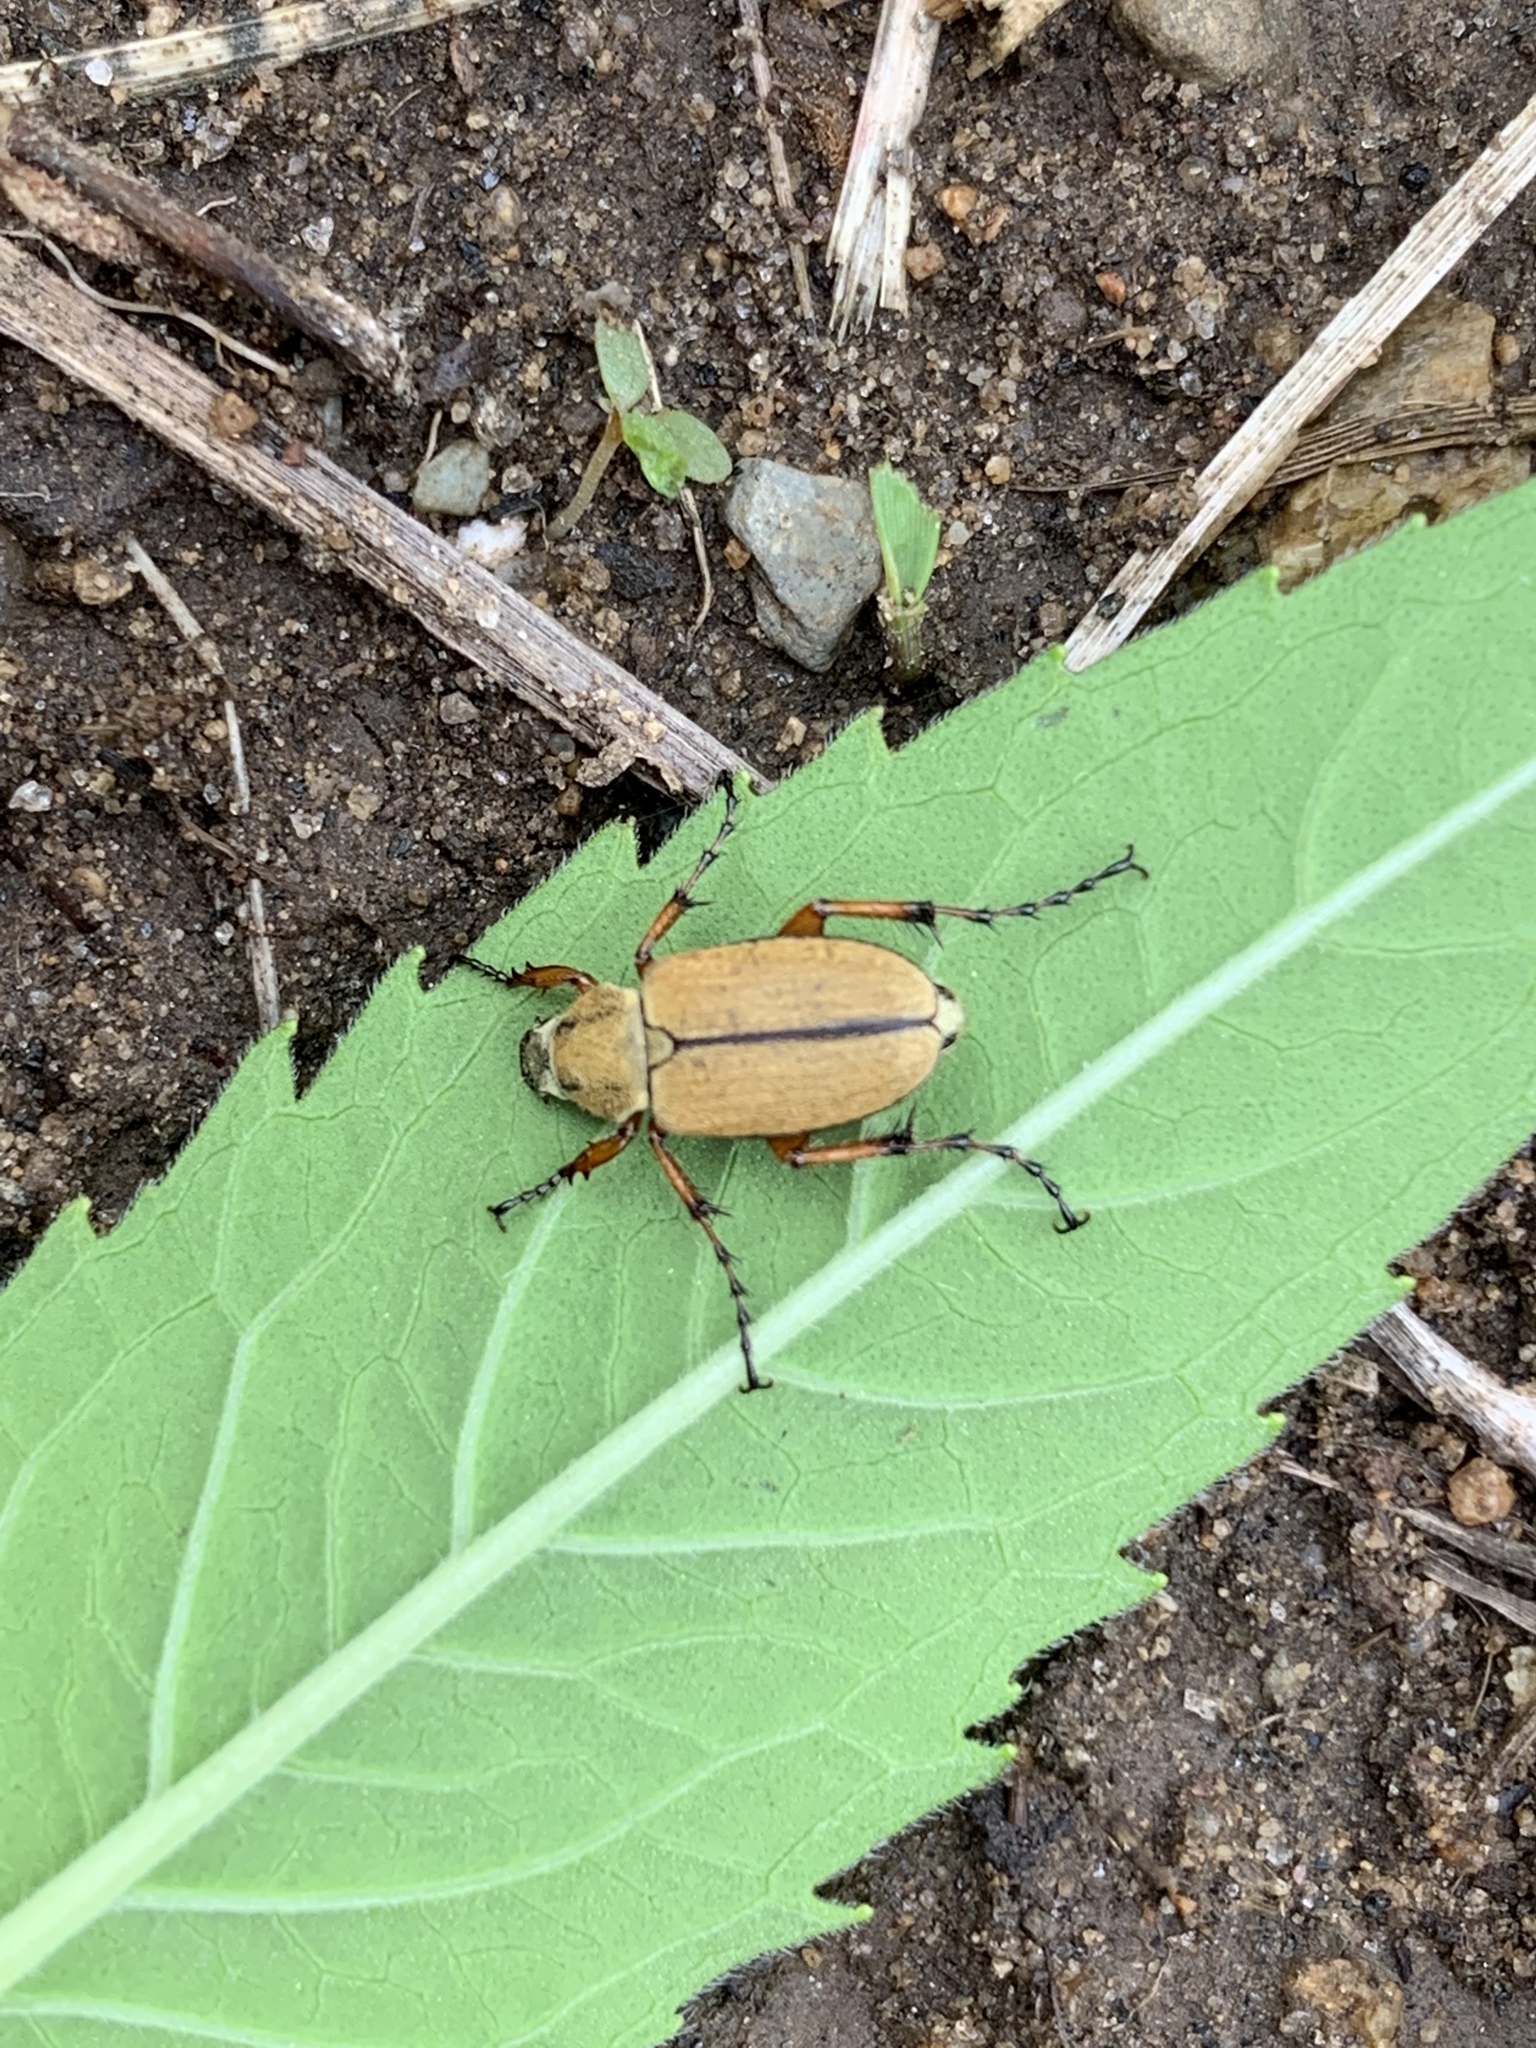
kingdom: Animalia
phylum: Arthropoda
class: Insecta
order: Coleoptera
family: Scarabaeidae
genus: Macrodactylus
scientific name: Macrodactylus subspinosus
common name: American rose chafer
